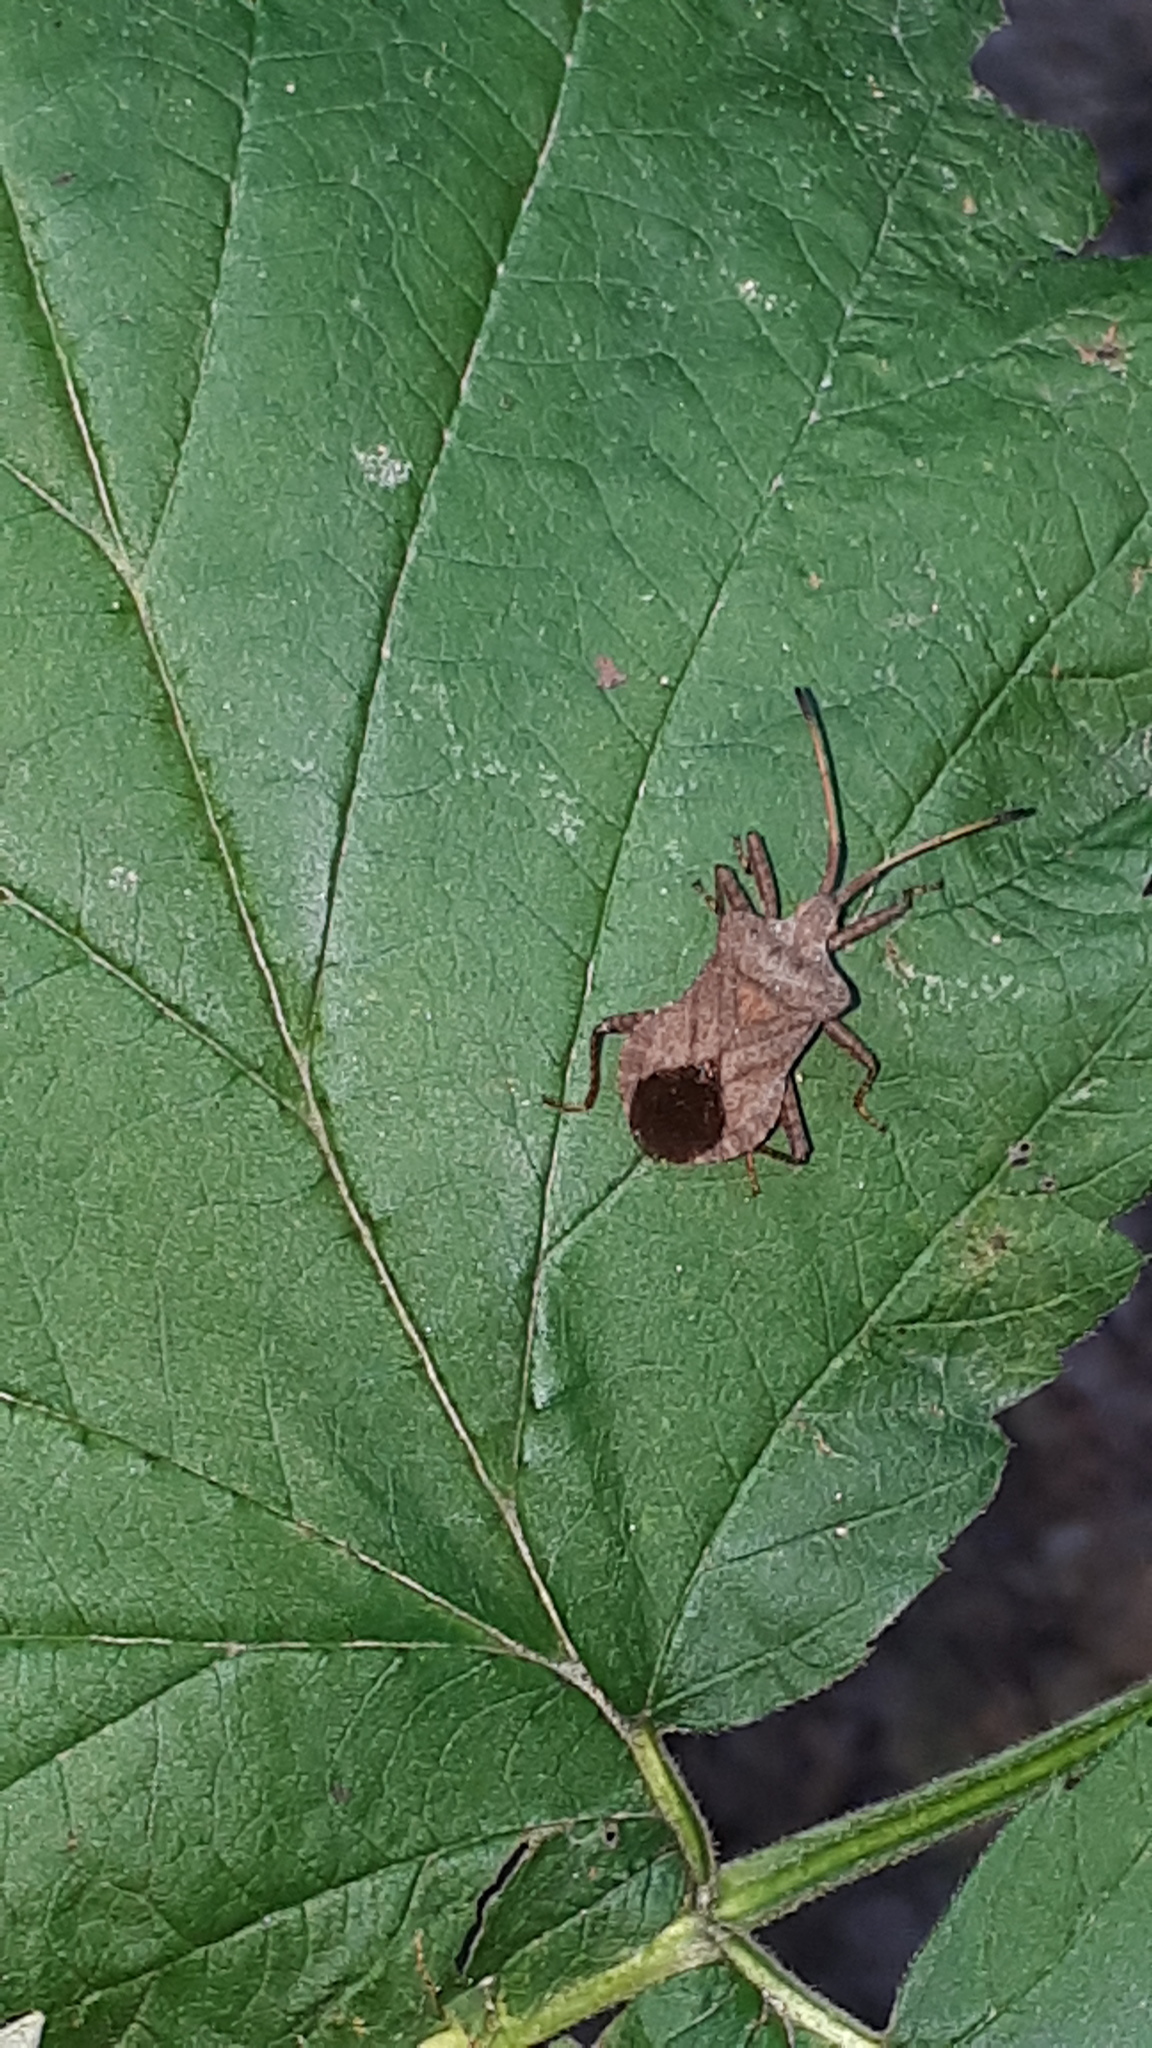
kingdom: Animalia
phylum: Arthropoda
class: Insecta
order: Hemiptera
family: Coreidae
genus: Coreus
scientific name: Coreus marginatus
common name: Dock bug
